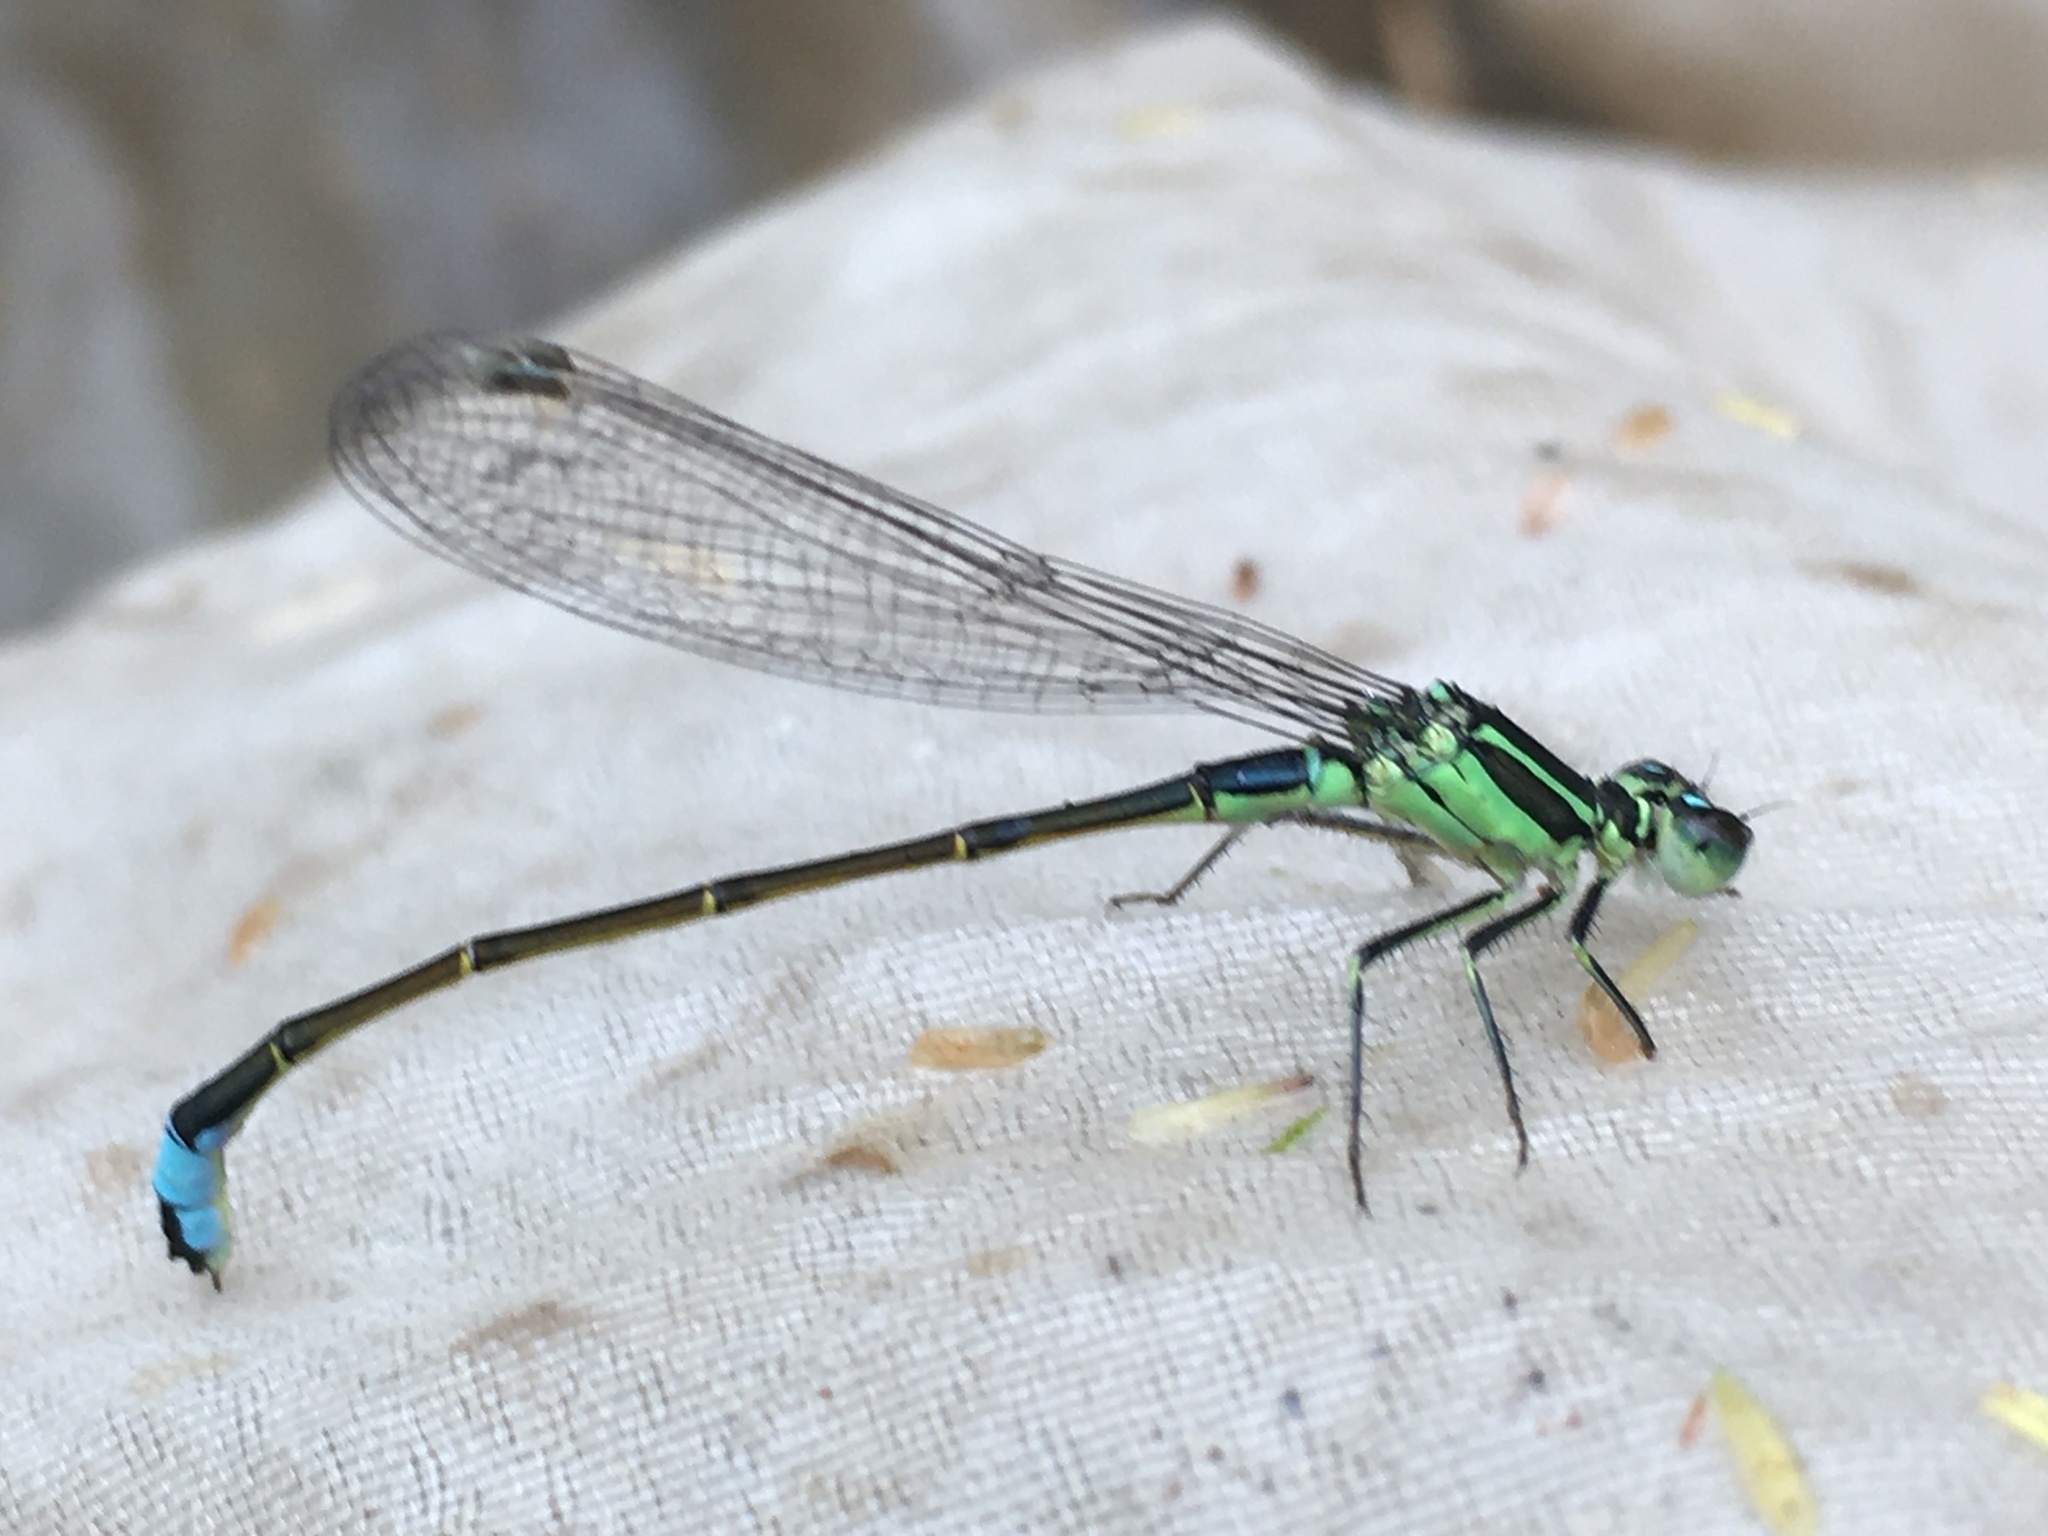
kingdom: Animalia
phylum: Arthropoda
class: Insecta
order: Odonata
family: Coenagrionidae
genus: Ischnura
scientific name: Ischnura elegans
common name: Blue-tailed damselfly
